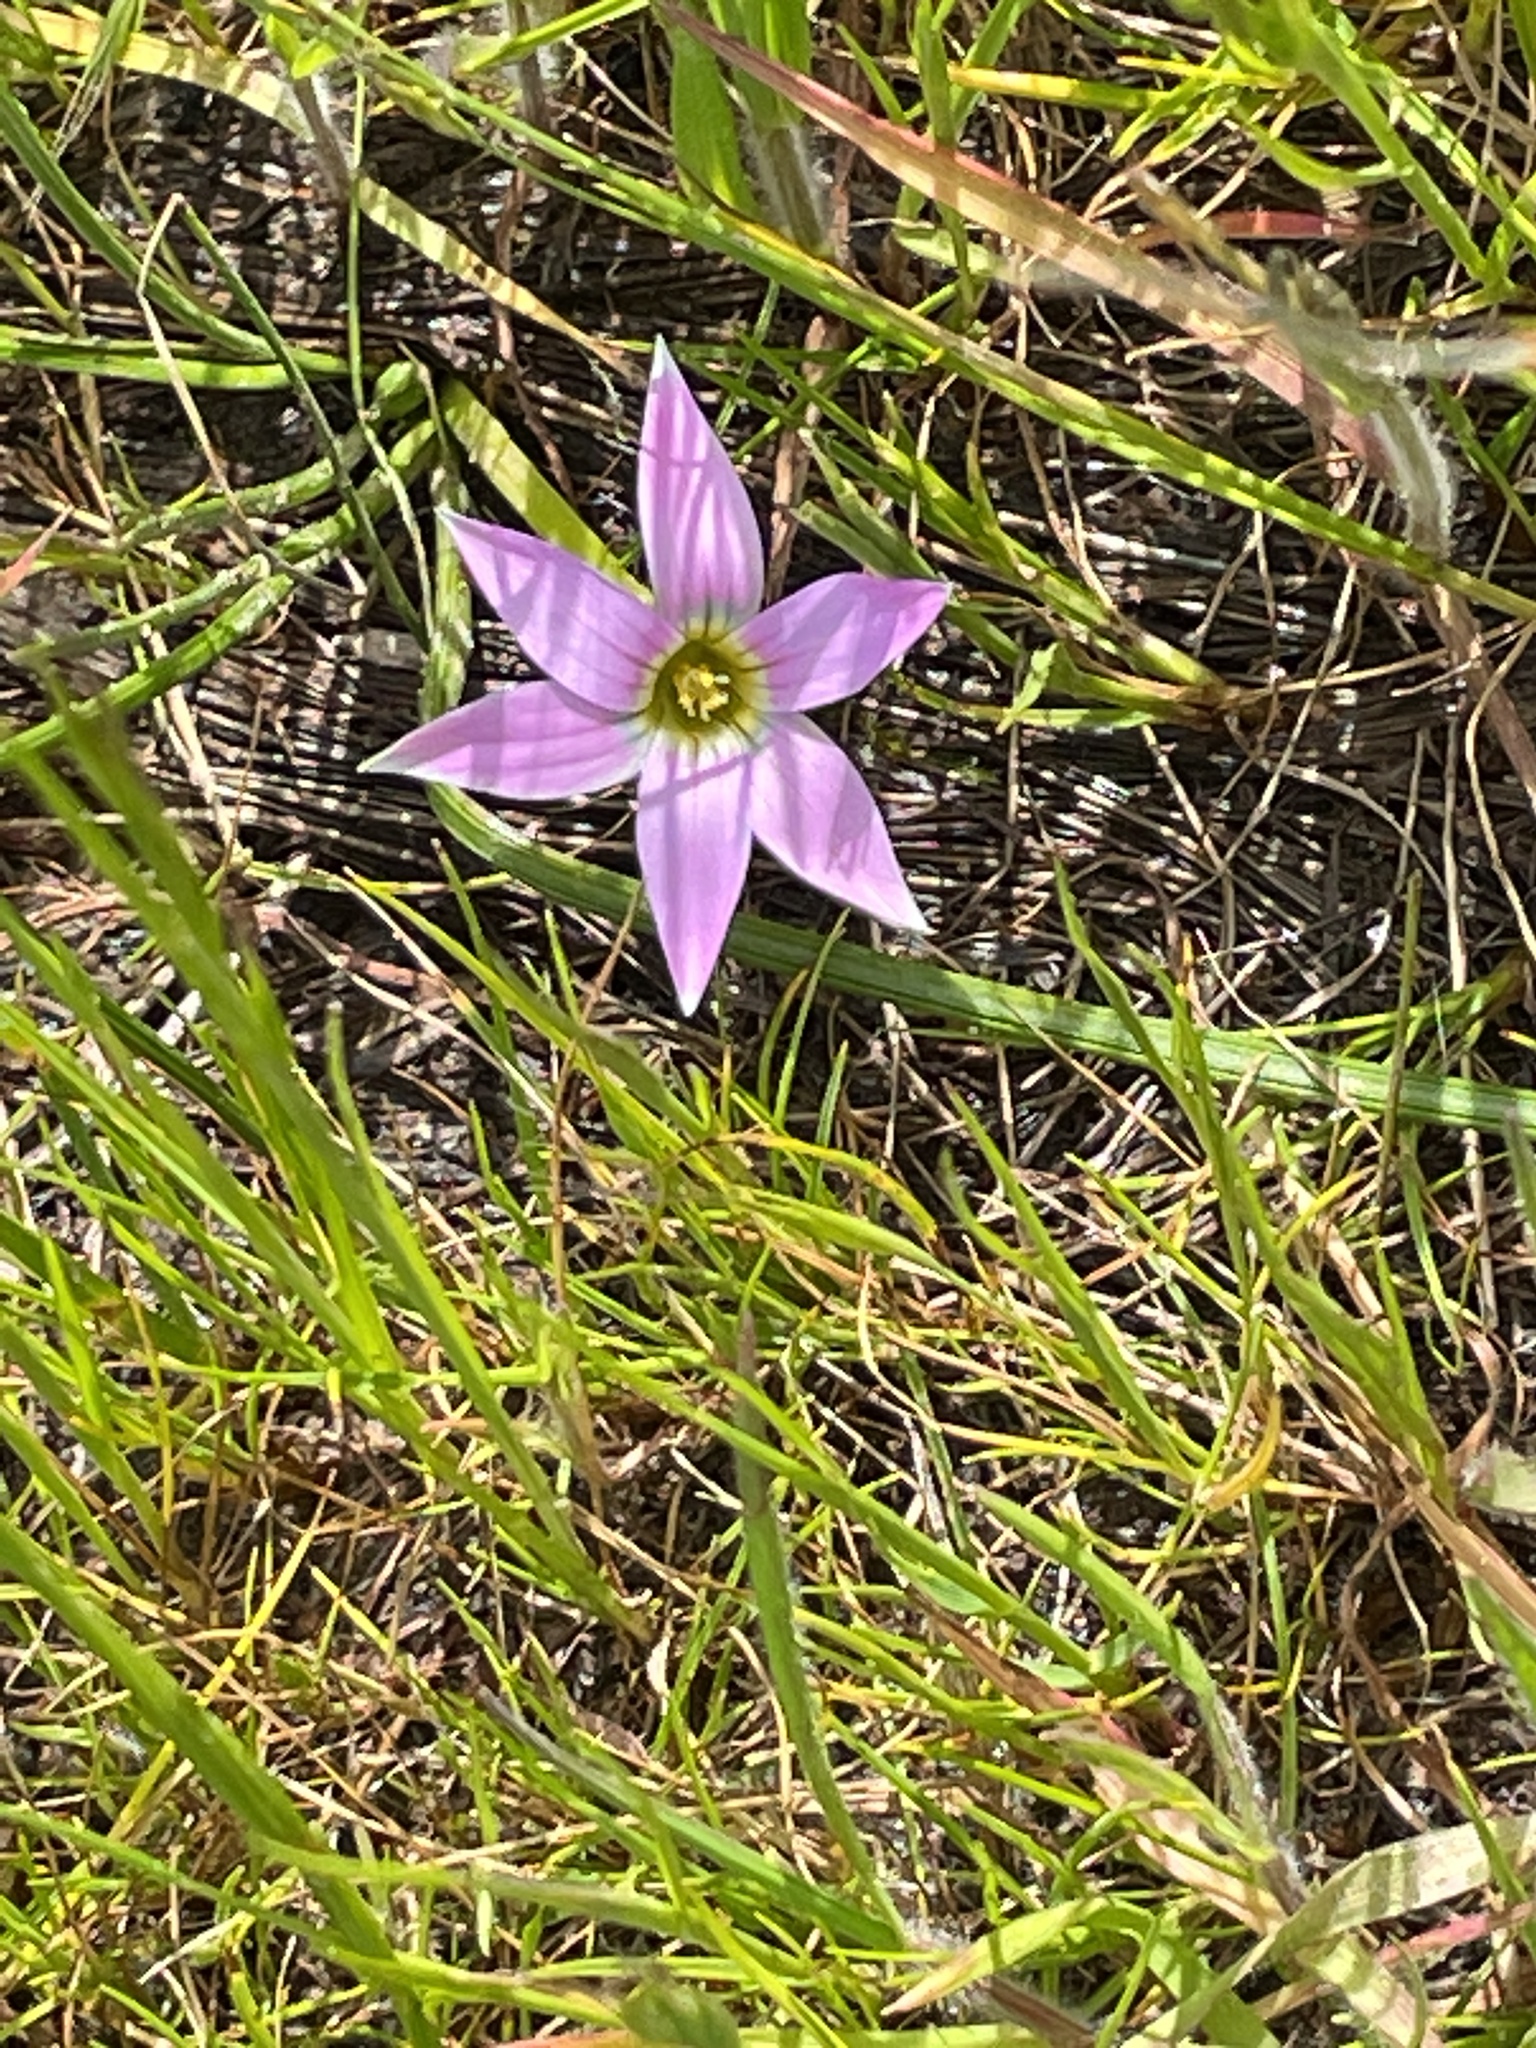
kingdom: Plantae
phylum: Tracheophyta
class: Liliopsida
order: Asparagales
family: Iridaceae
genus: Romulea
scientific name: Romulea rosea
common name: Oniongrass
